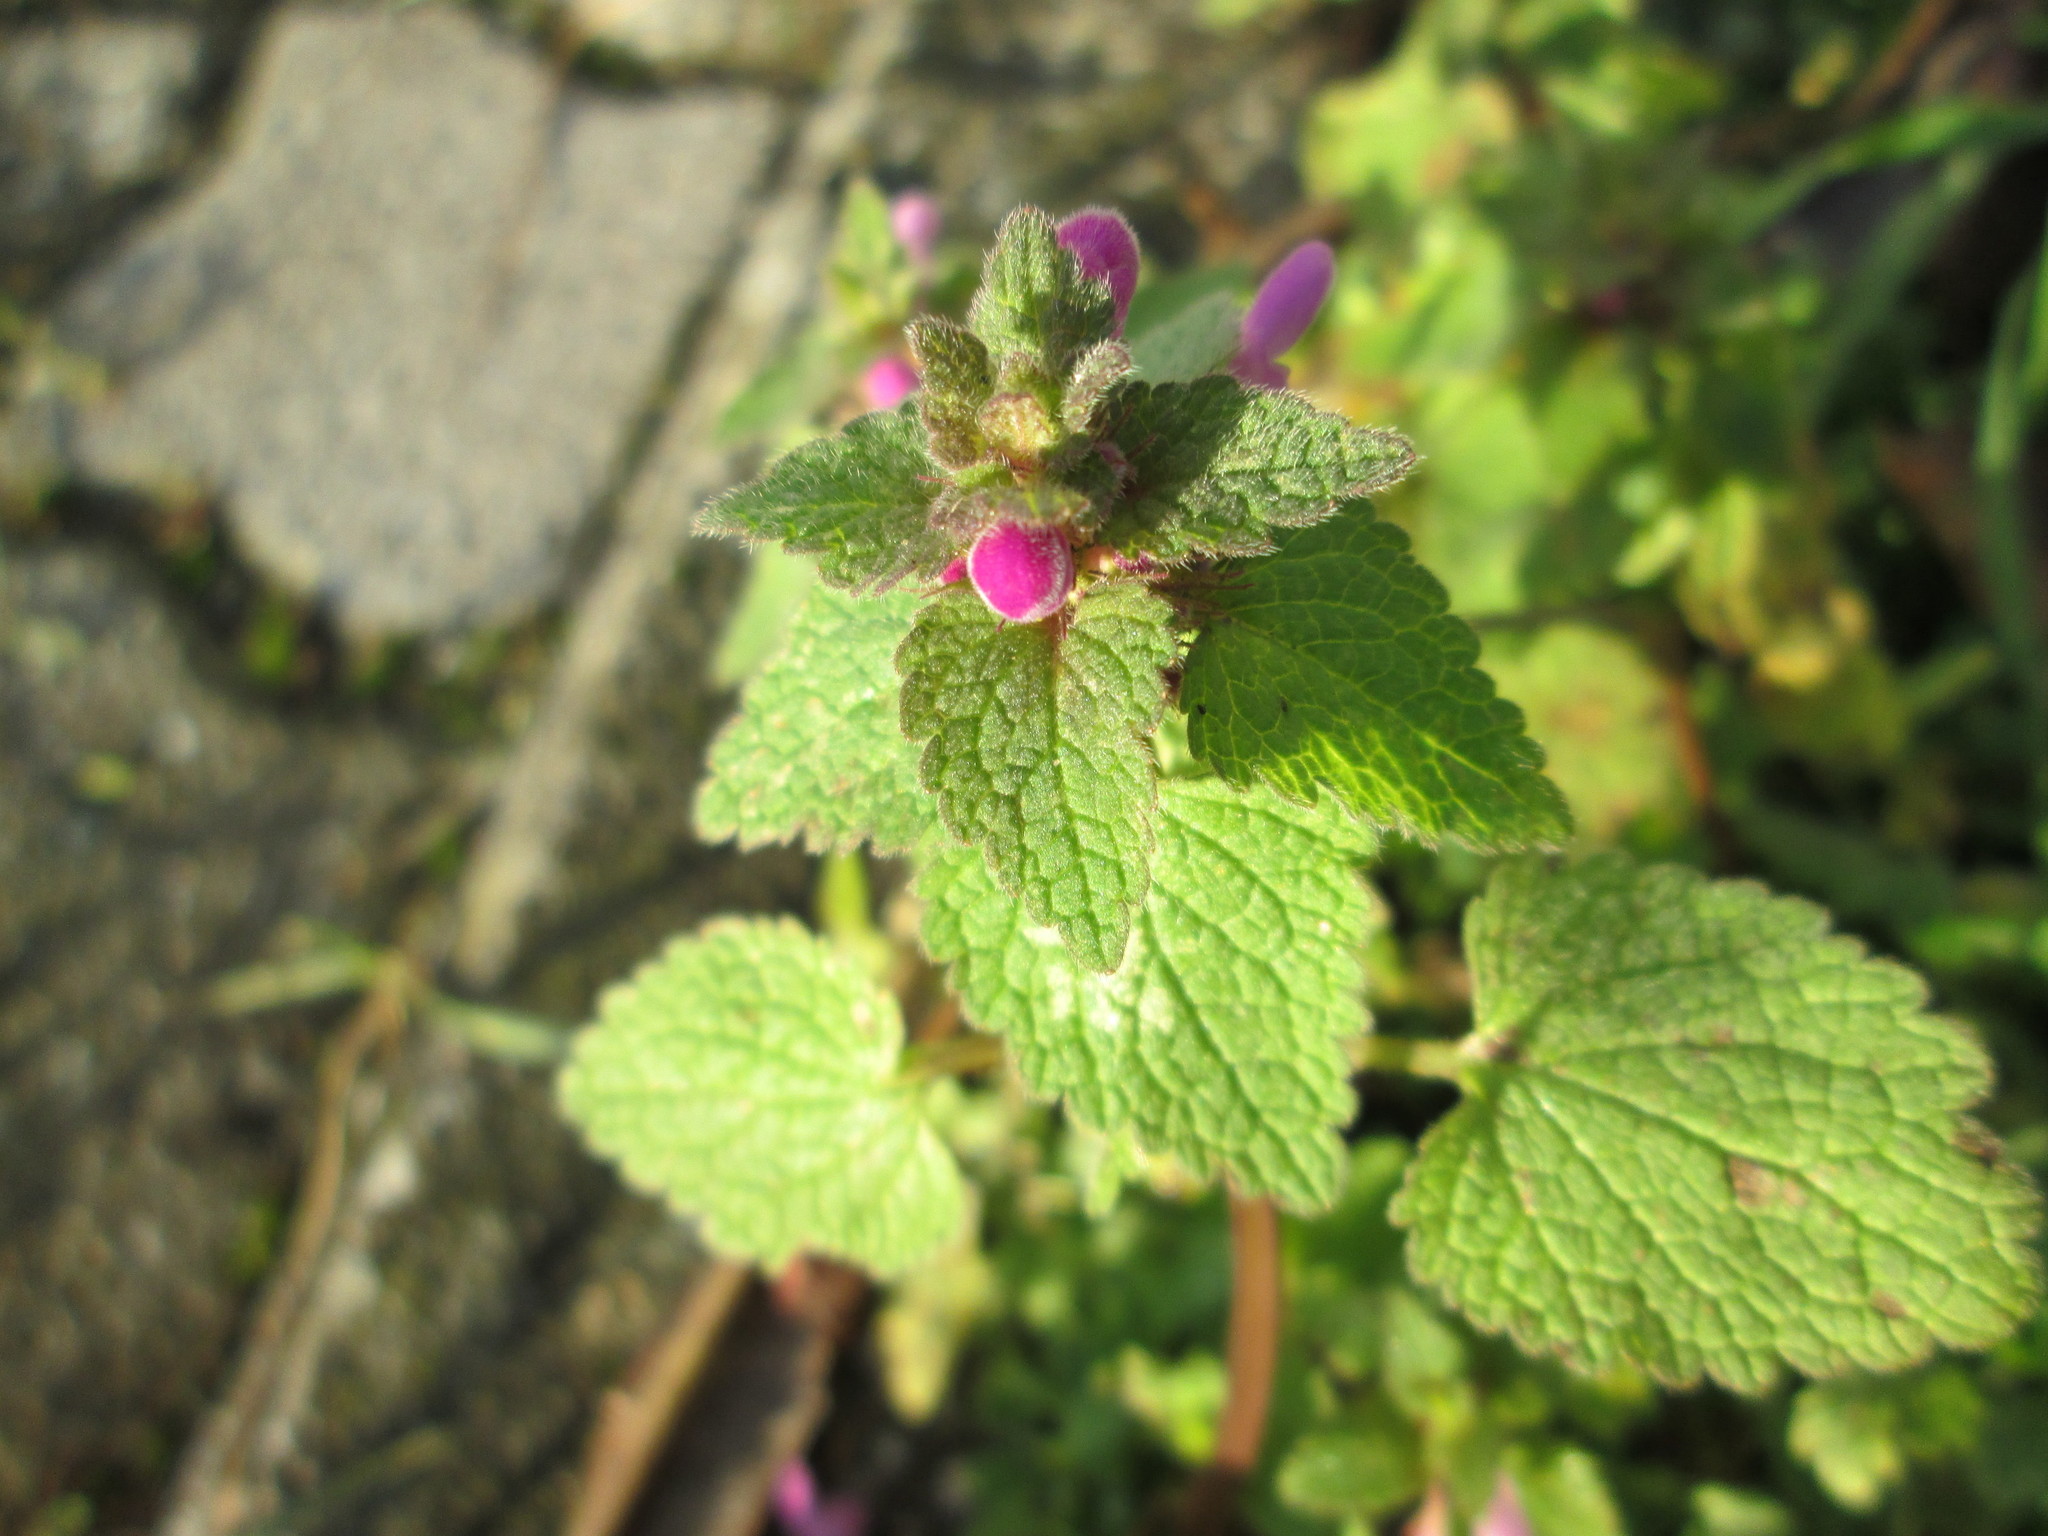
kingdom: Plantae
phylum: Tracheophyta
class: Magnoliopsida
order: Lamiales
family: Lamiaceae
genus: Lamium
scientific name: Lamium purpureum
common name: Red dead-nettle
